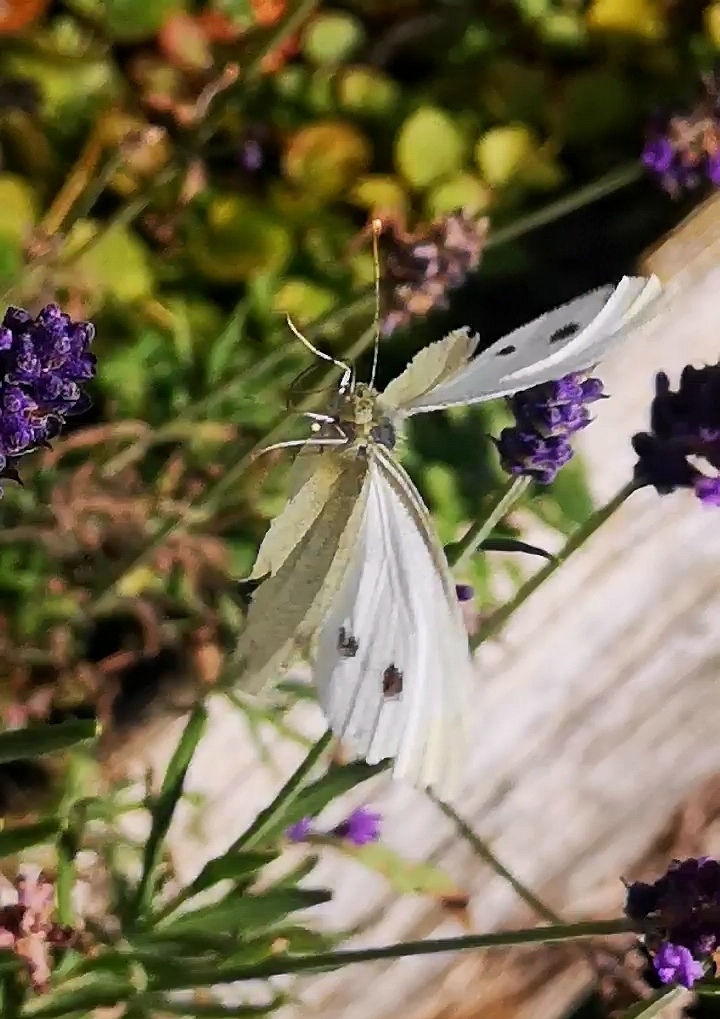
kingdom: Animalia
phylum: Arthropoda
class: Insecta
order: Lepidoptera
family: Pieridae
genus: Pieris
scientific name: Pieris rapae
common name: Small white
